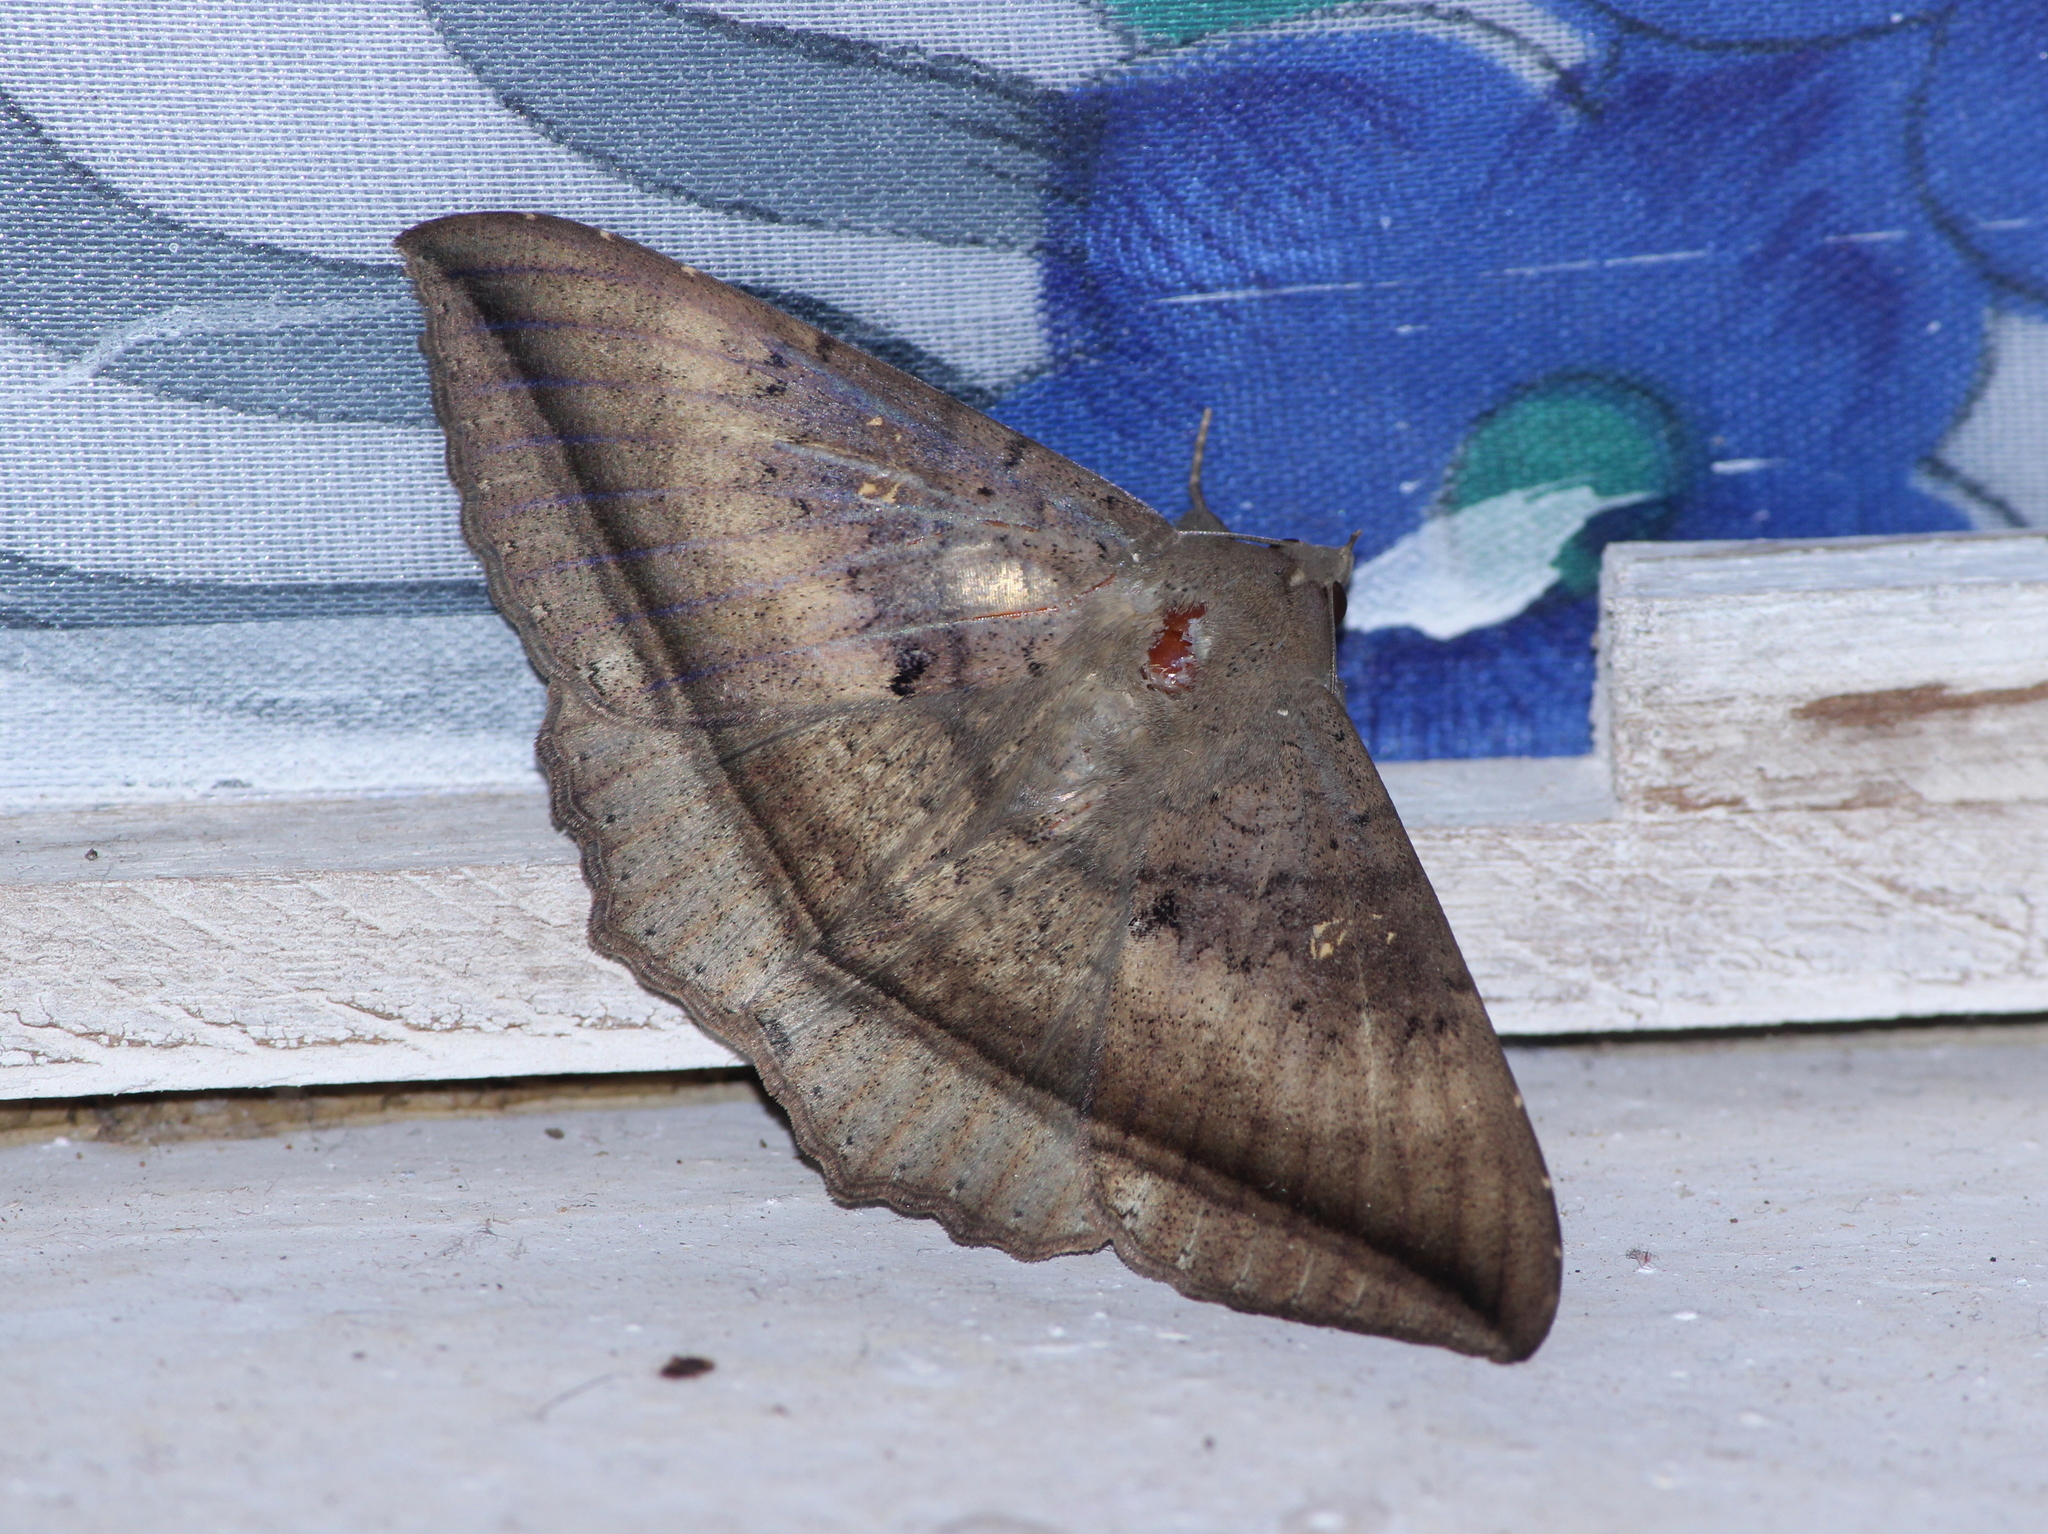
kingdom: Animalia
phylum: Arthropoda
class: Insecta
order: Lepidoptera
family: Erebidae
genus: Hulodes
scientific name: Hulodes caranea
